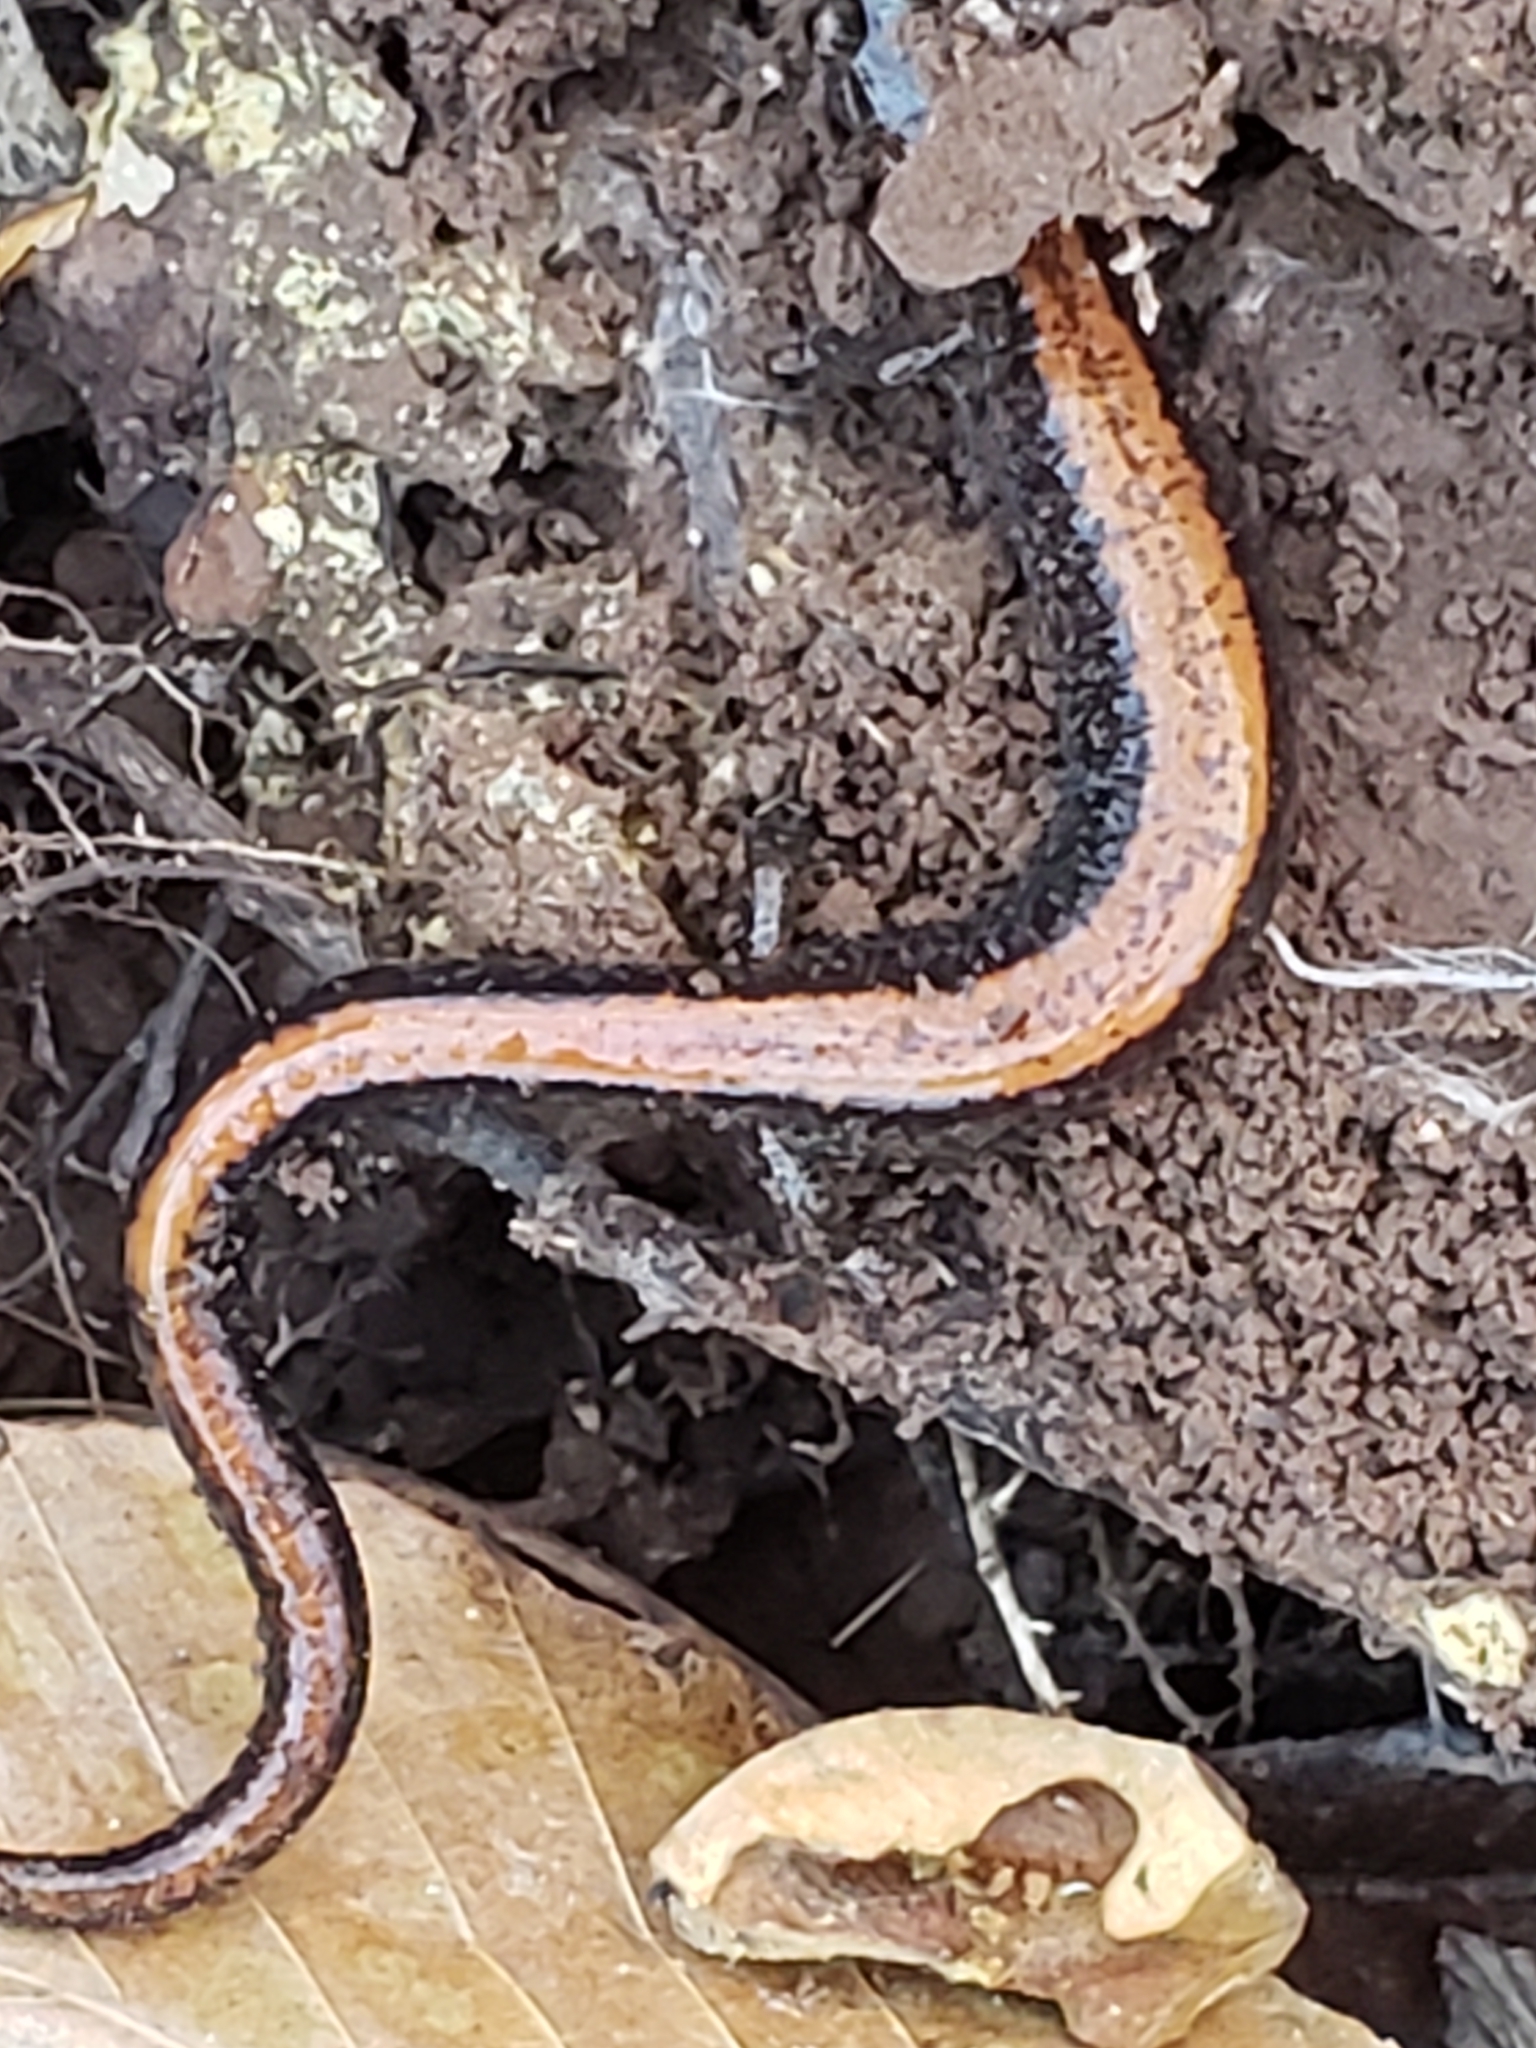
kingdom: Animalia
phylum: Chordata
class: Amphibia
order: Caudata
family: Plethodontidae
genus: Plethodon
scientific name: Plethodon cinereus
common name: Redback salamander
